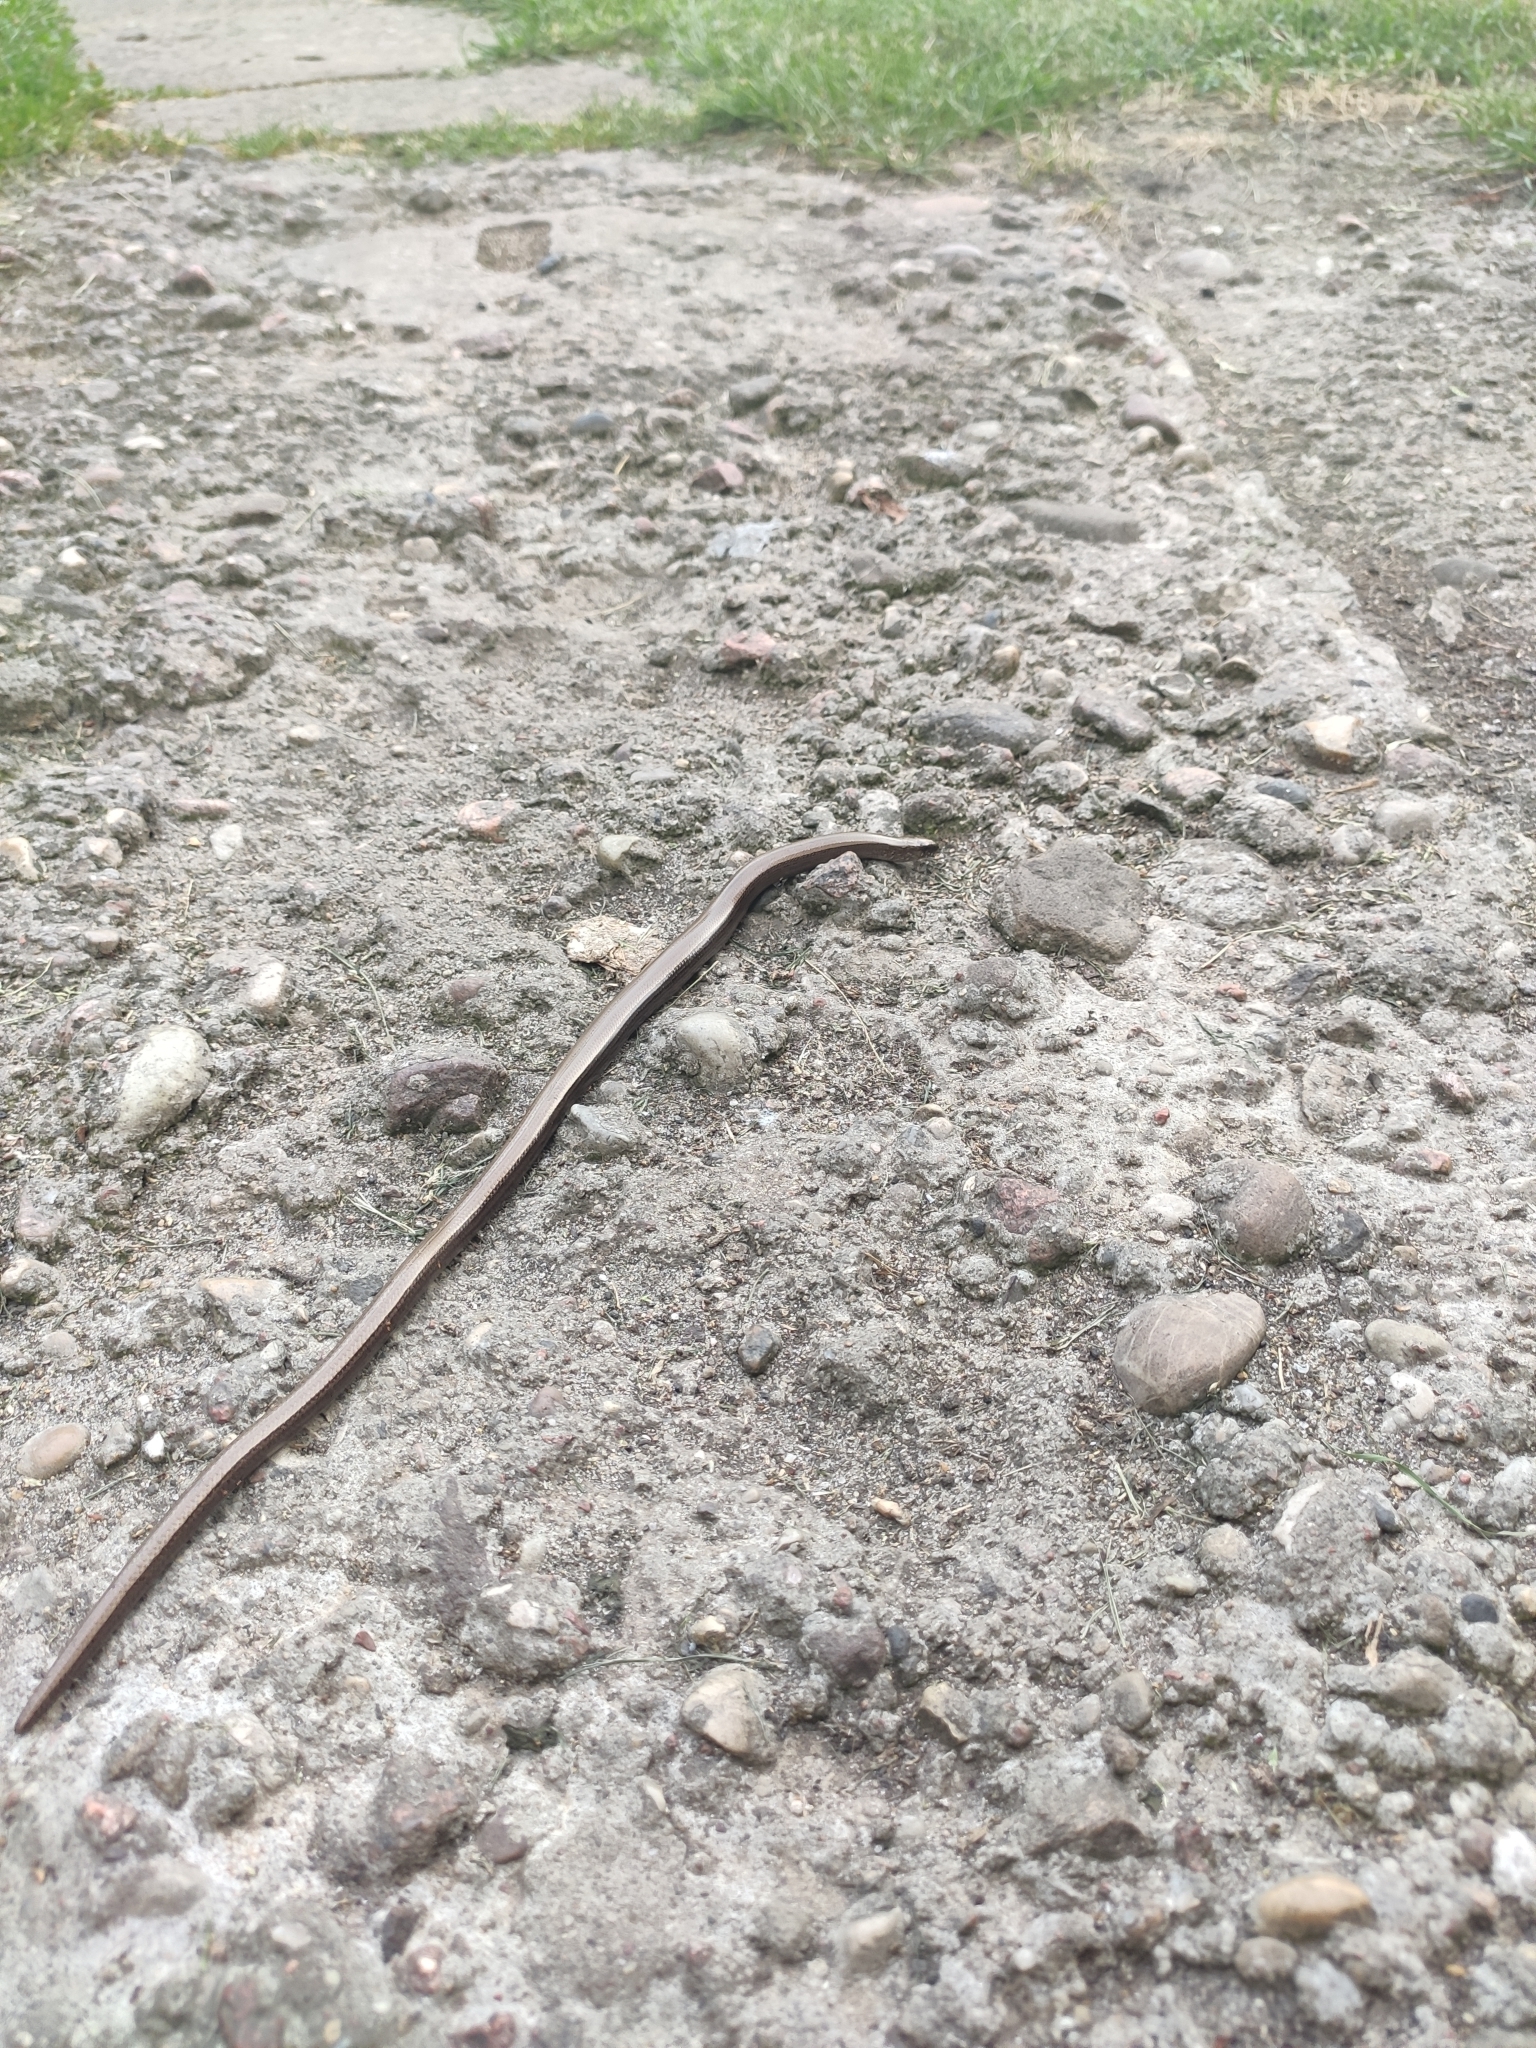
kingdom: Animalia
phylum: Chordata
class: Squamata
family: Anguidae
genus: Anguis
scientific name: Anguis colchica
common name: Slow worm
